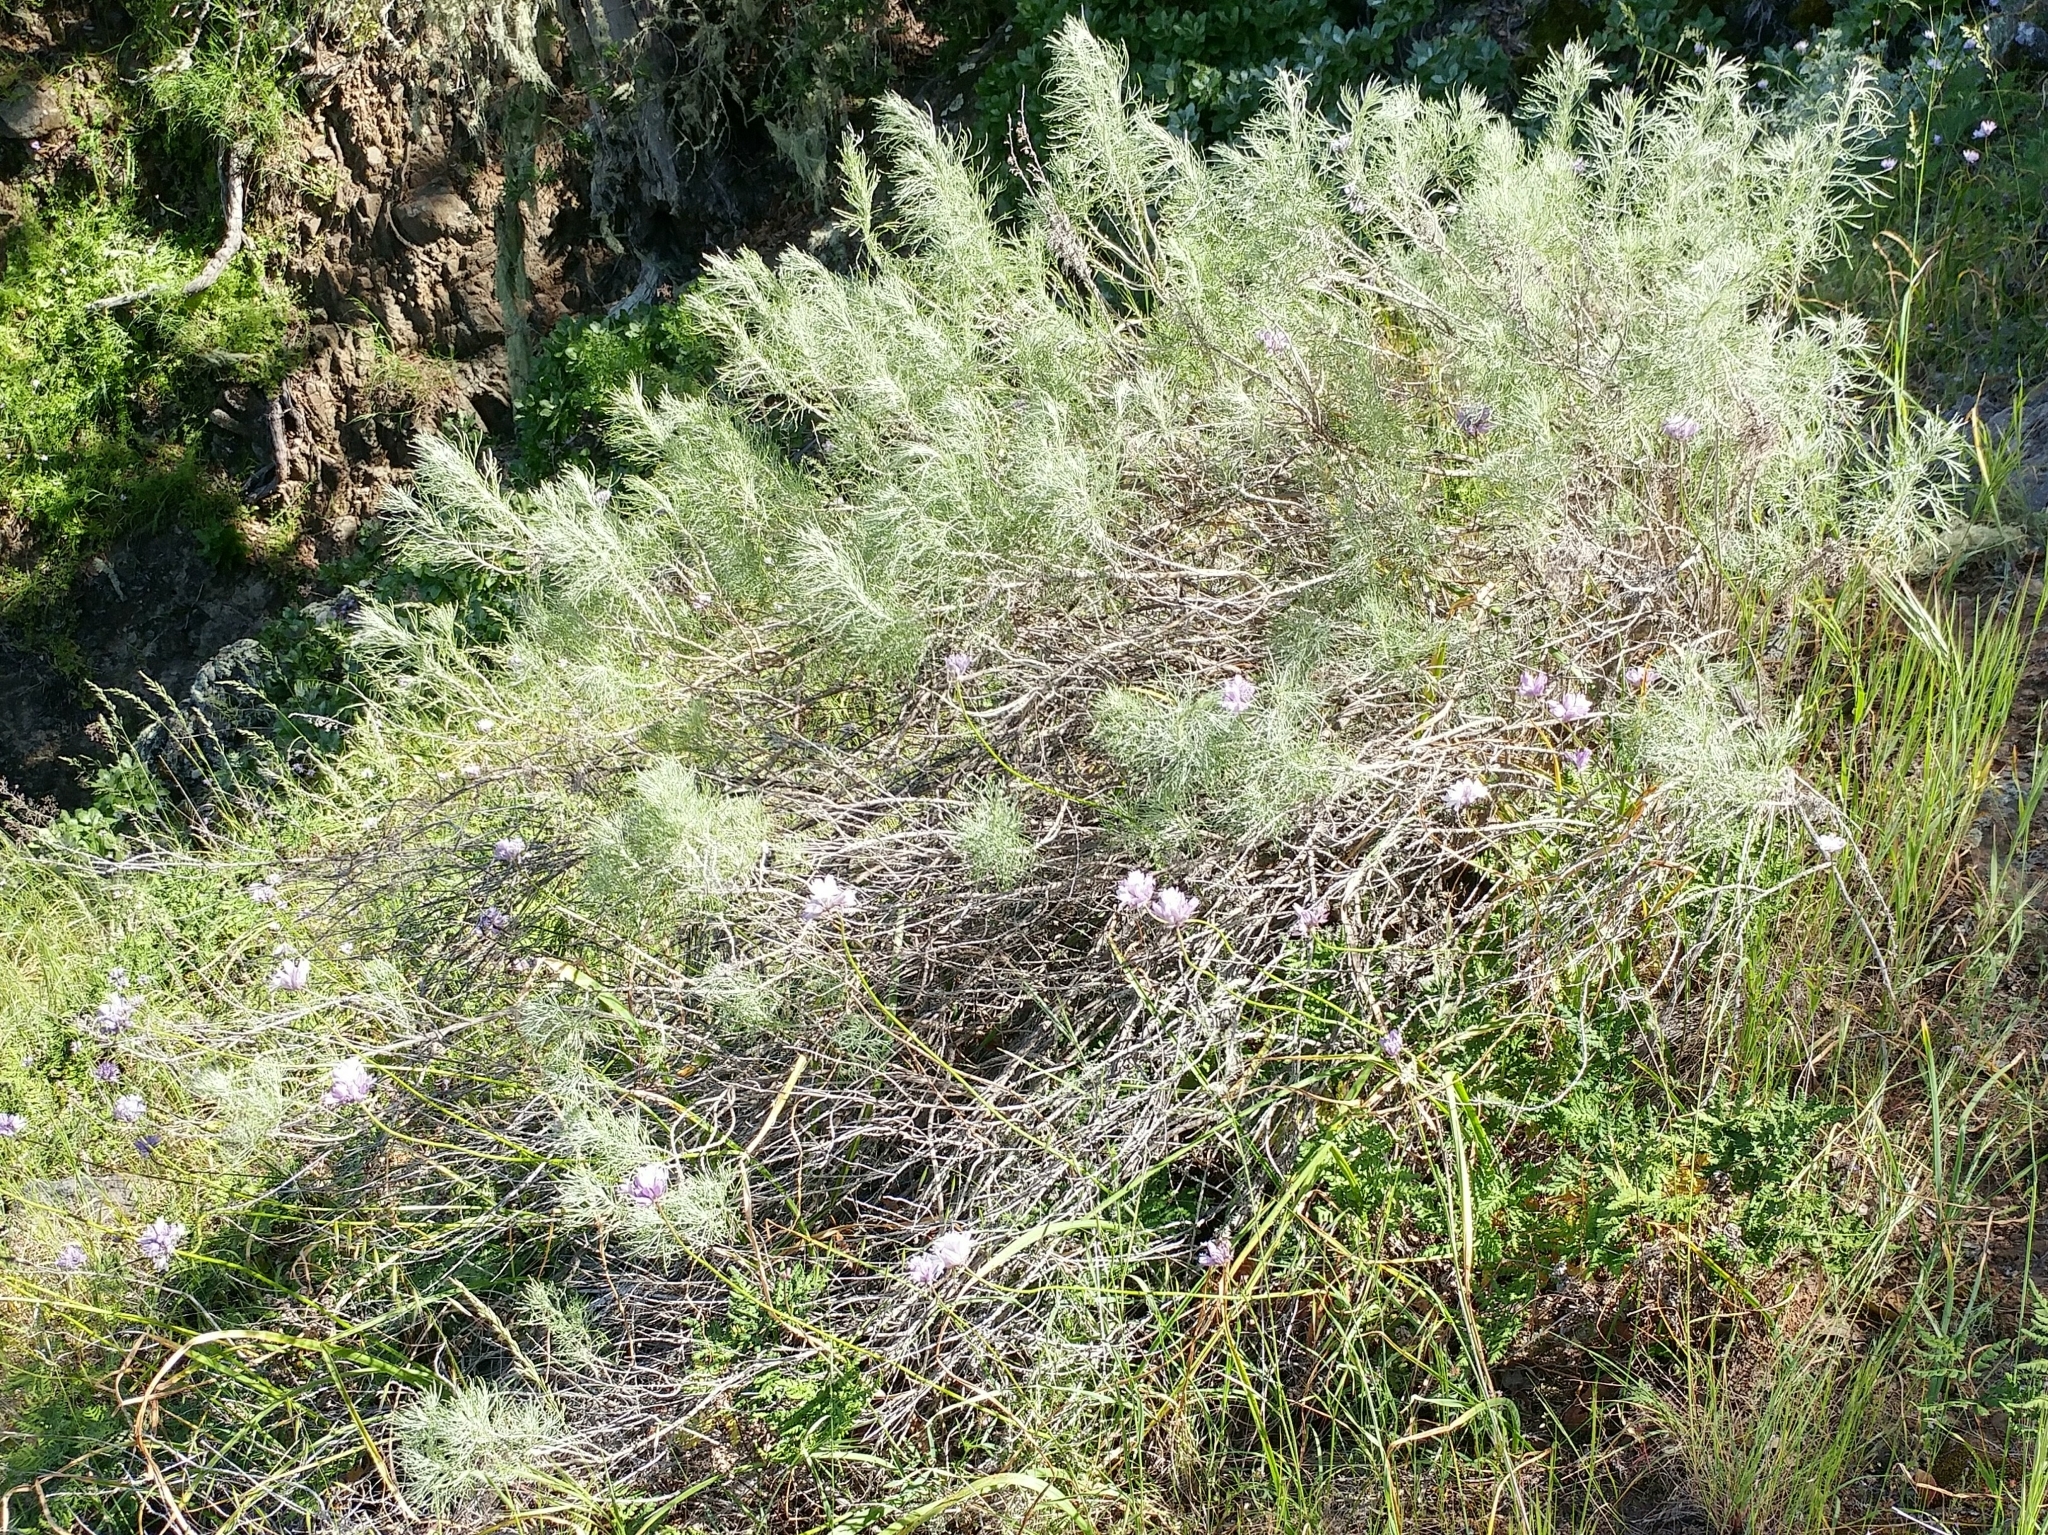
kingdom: Plantae
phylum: Tracheophyta
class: Magnoliopsida
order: Asterales
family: Asteraceae
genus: Artemisia
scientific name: Artemisia californica
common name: California sagebrush
